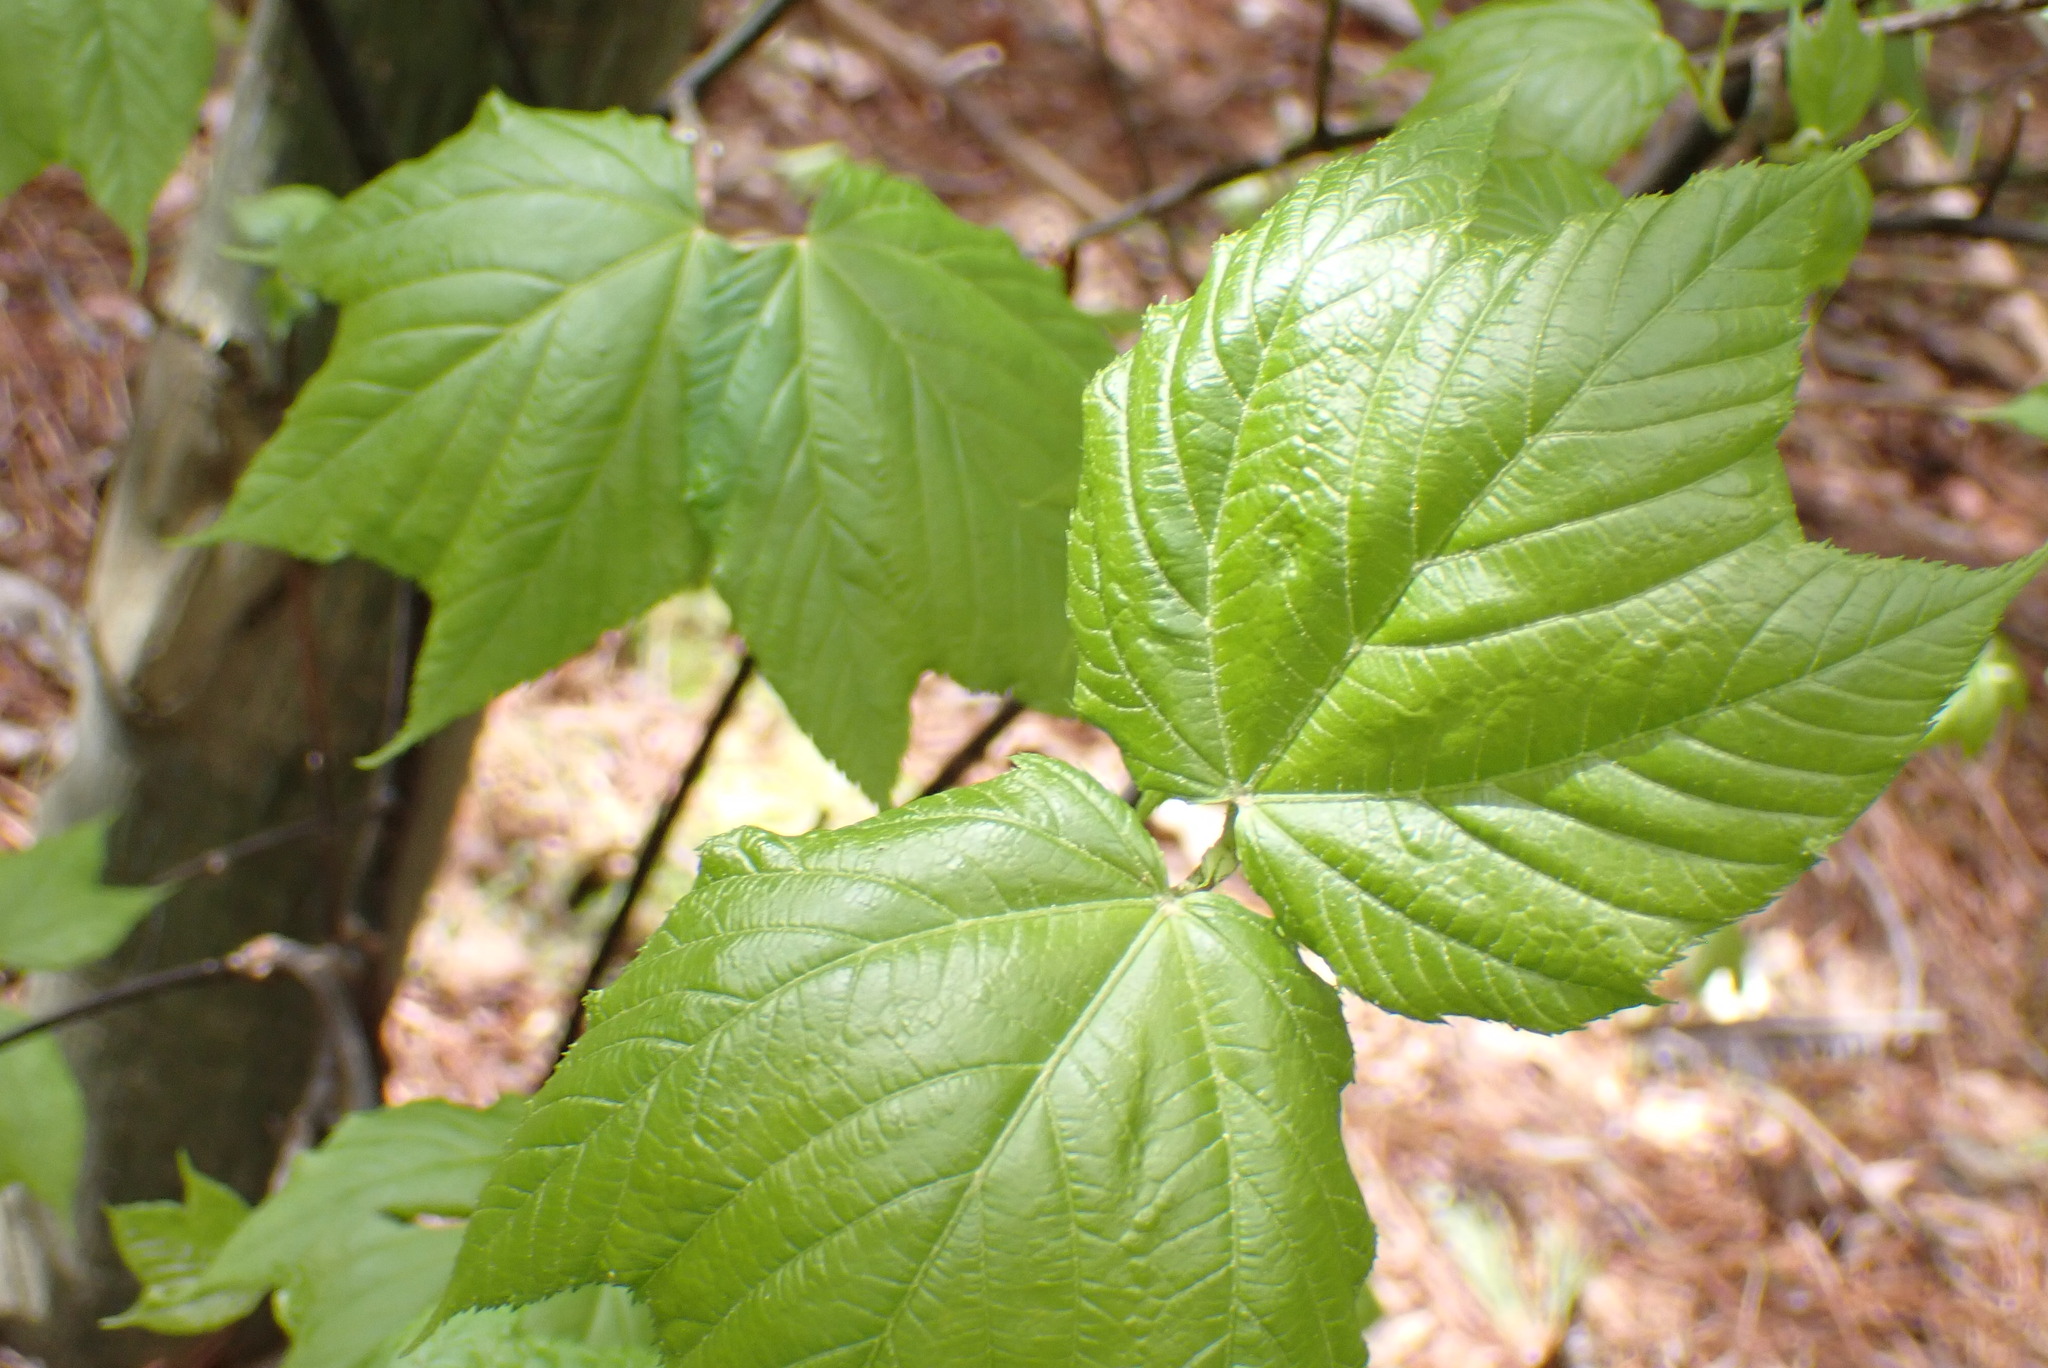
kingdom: Plantae
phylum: Tracheophyta
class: Magnoliopsida
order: Sapindales
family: Sapindaceae
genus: Acer
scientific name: Acer pensylvanicum
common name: Moosewood
